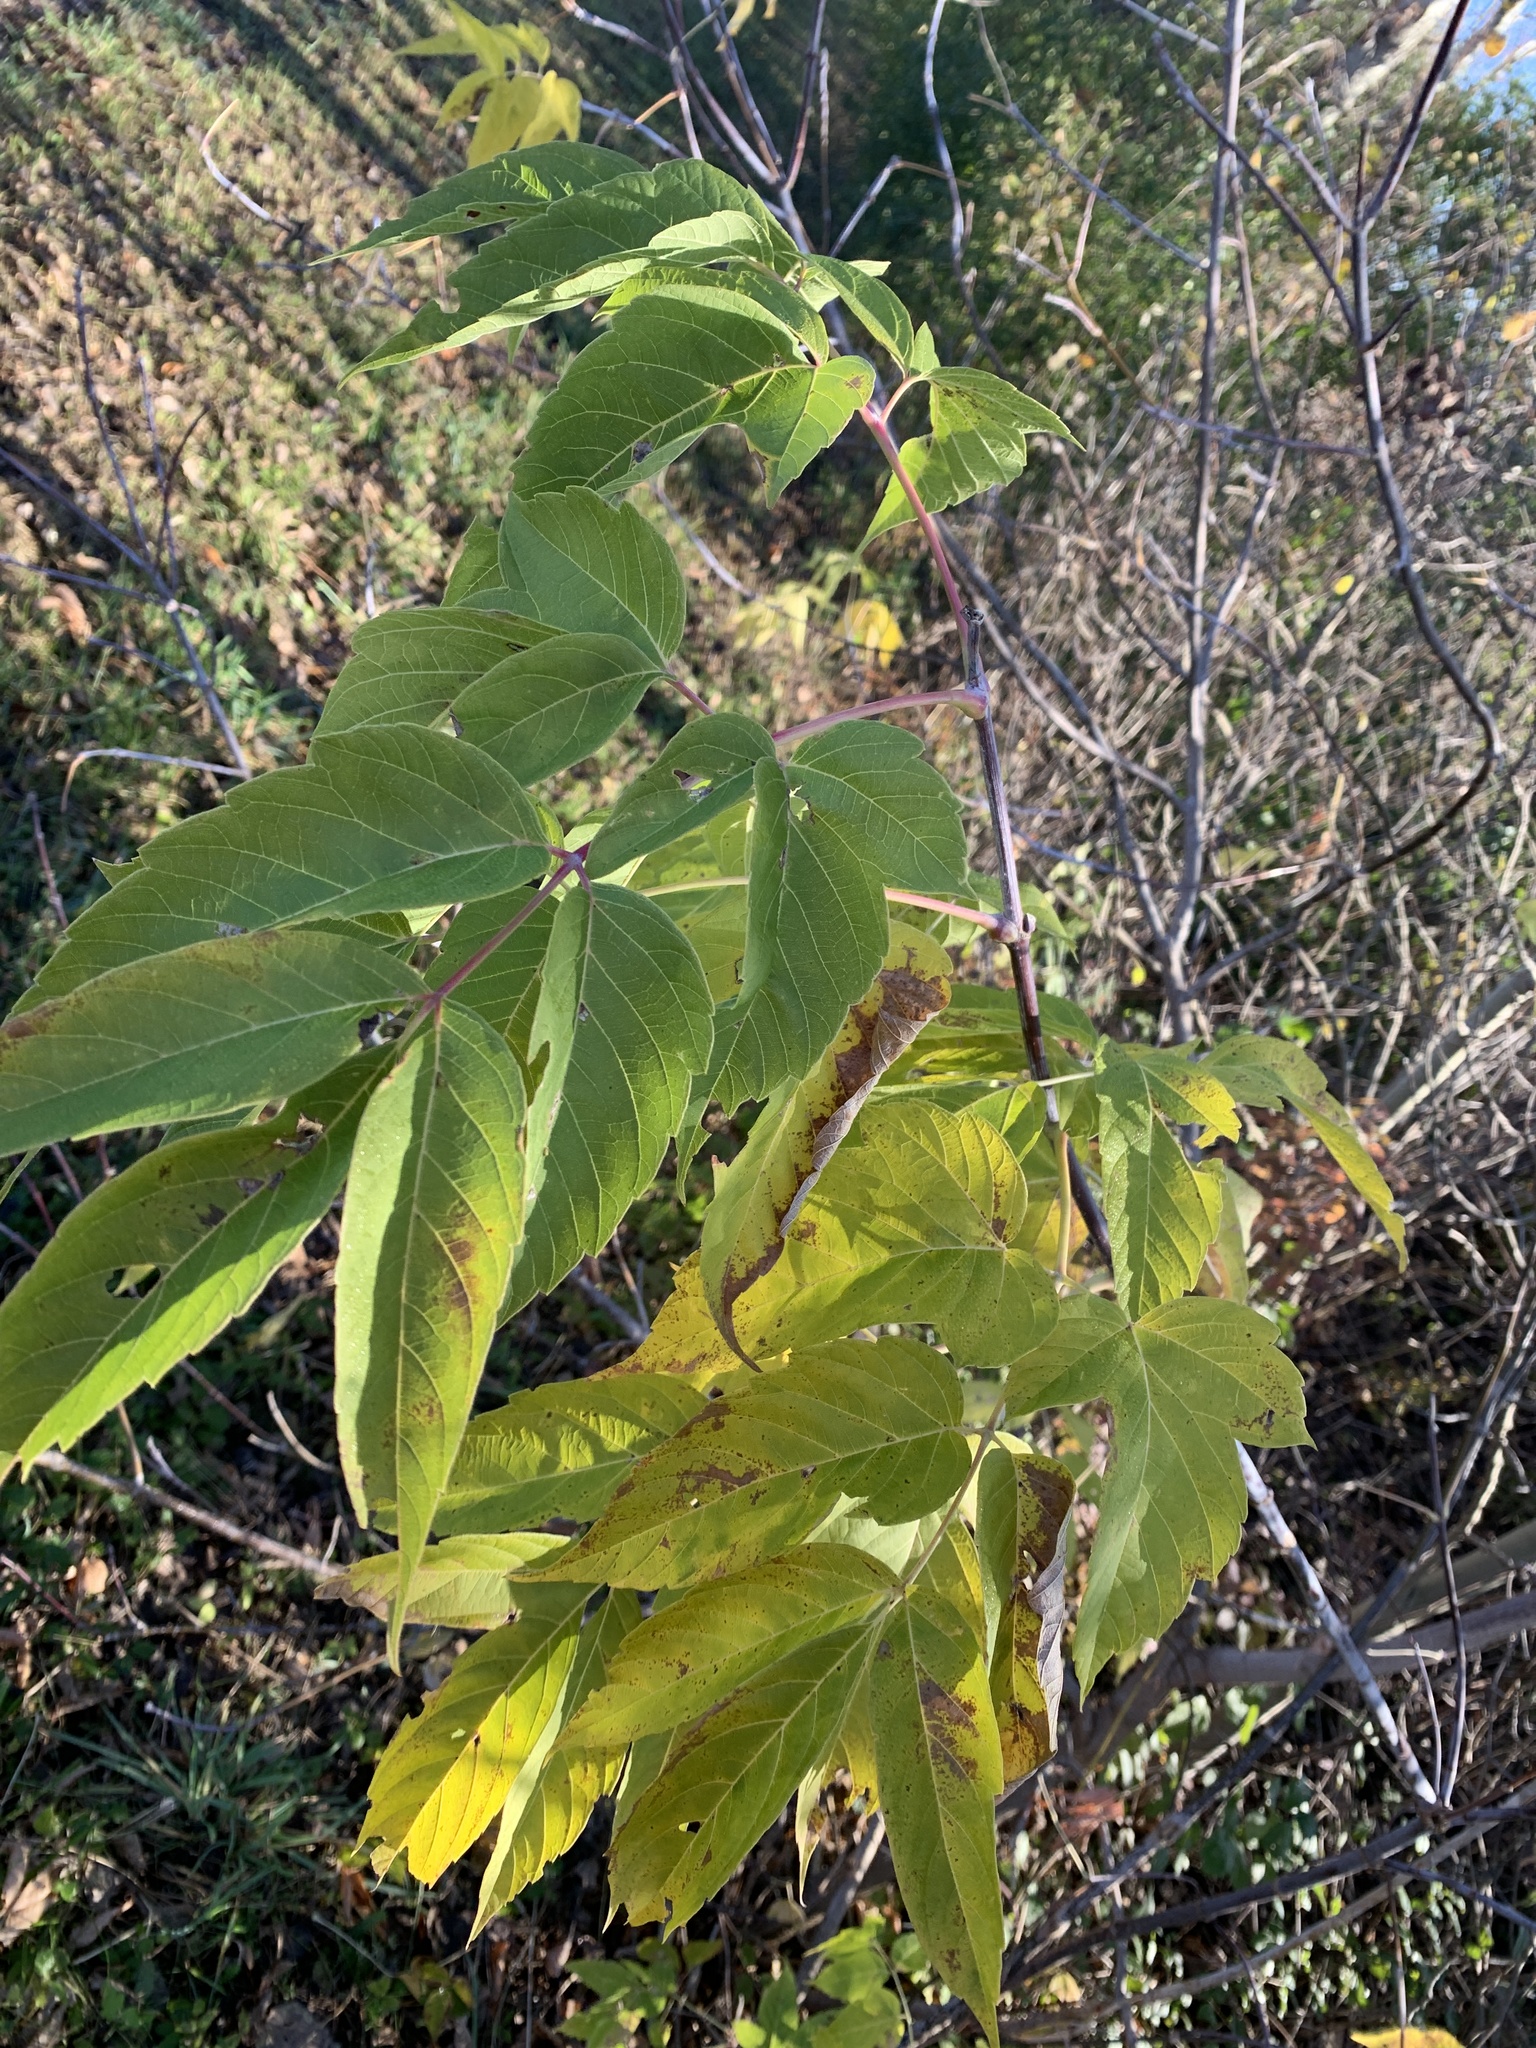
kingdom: Plantae
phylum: Tracheophyta
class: Magnoliopsida
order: Sapindales
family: Sapindaceae
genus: Acer
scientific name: Acer negundo
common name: Ashleaf maple
